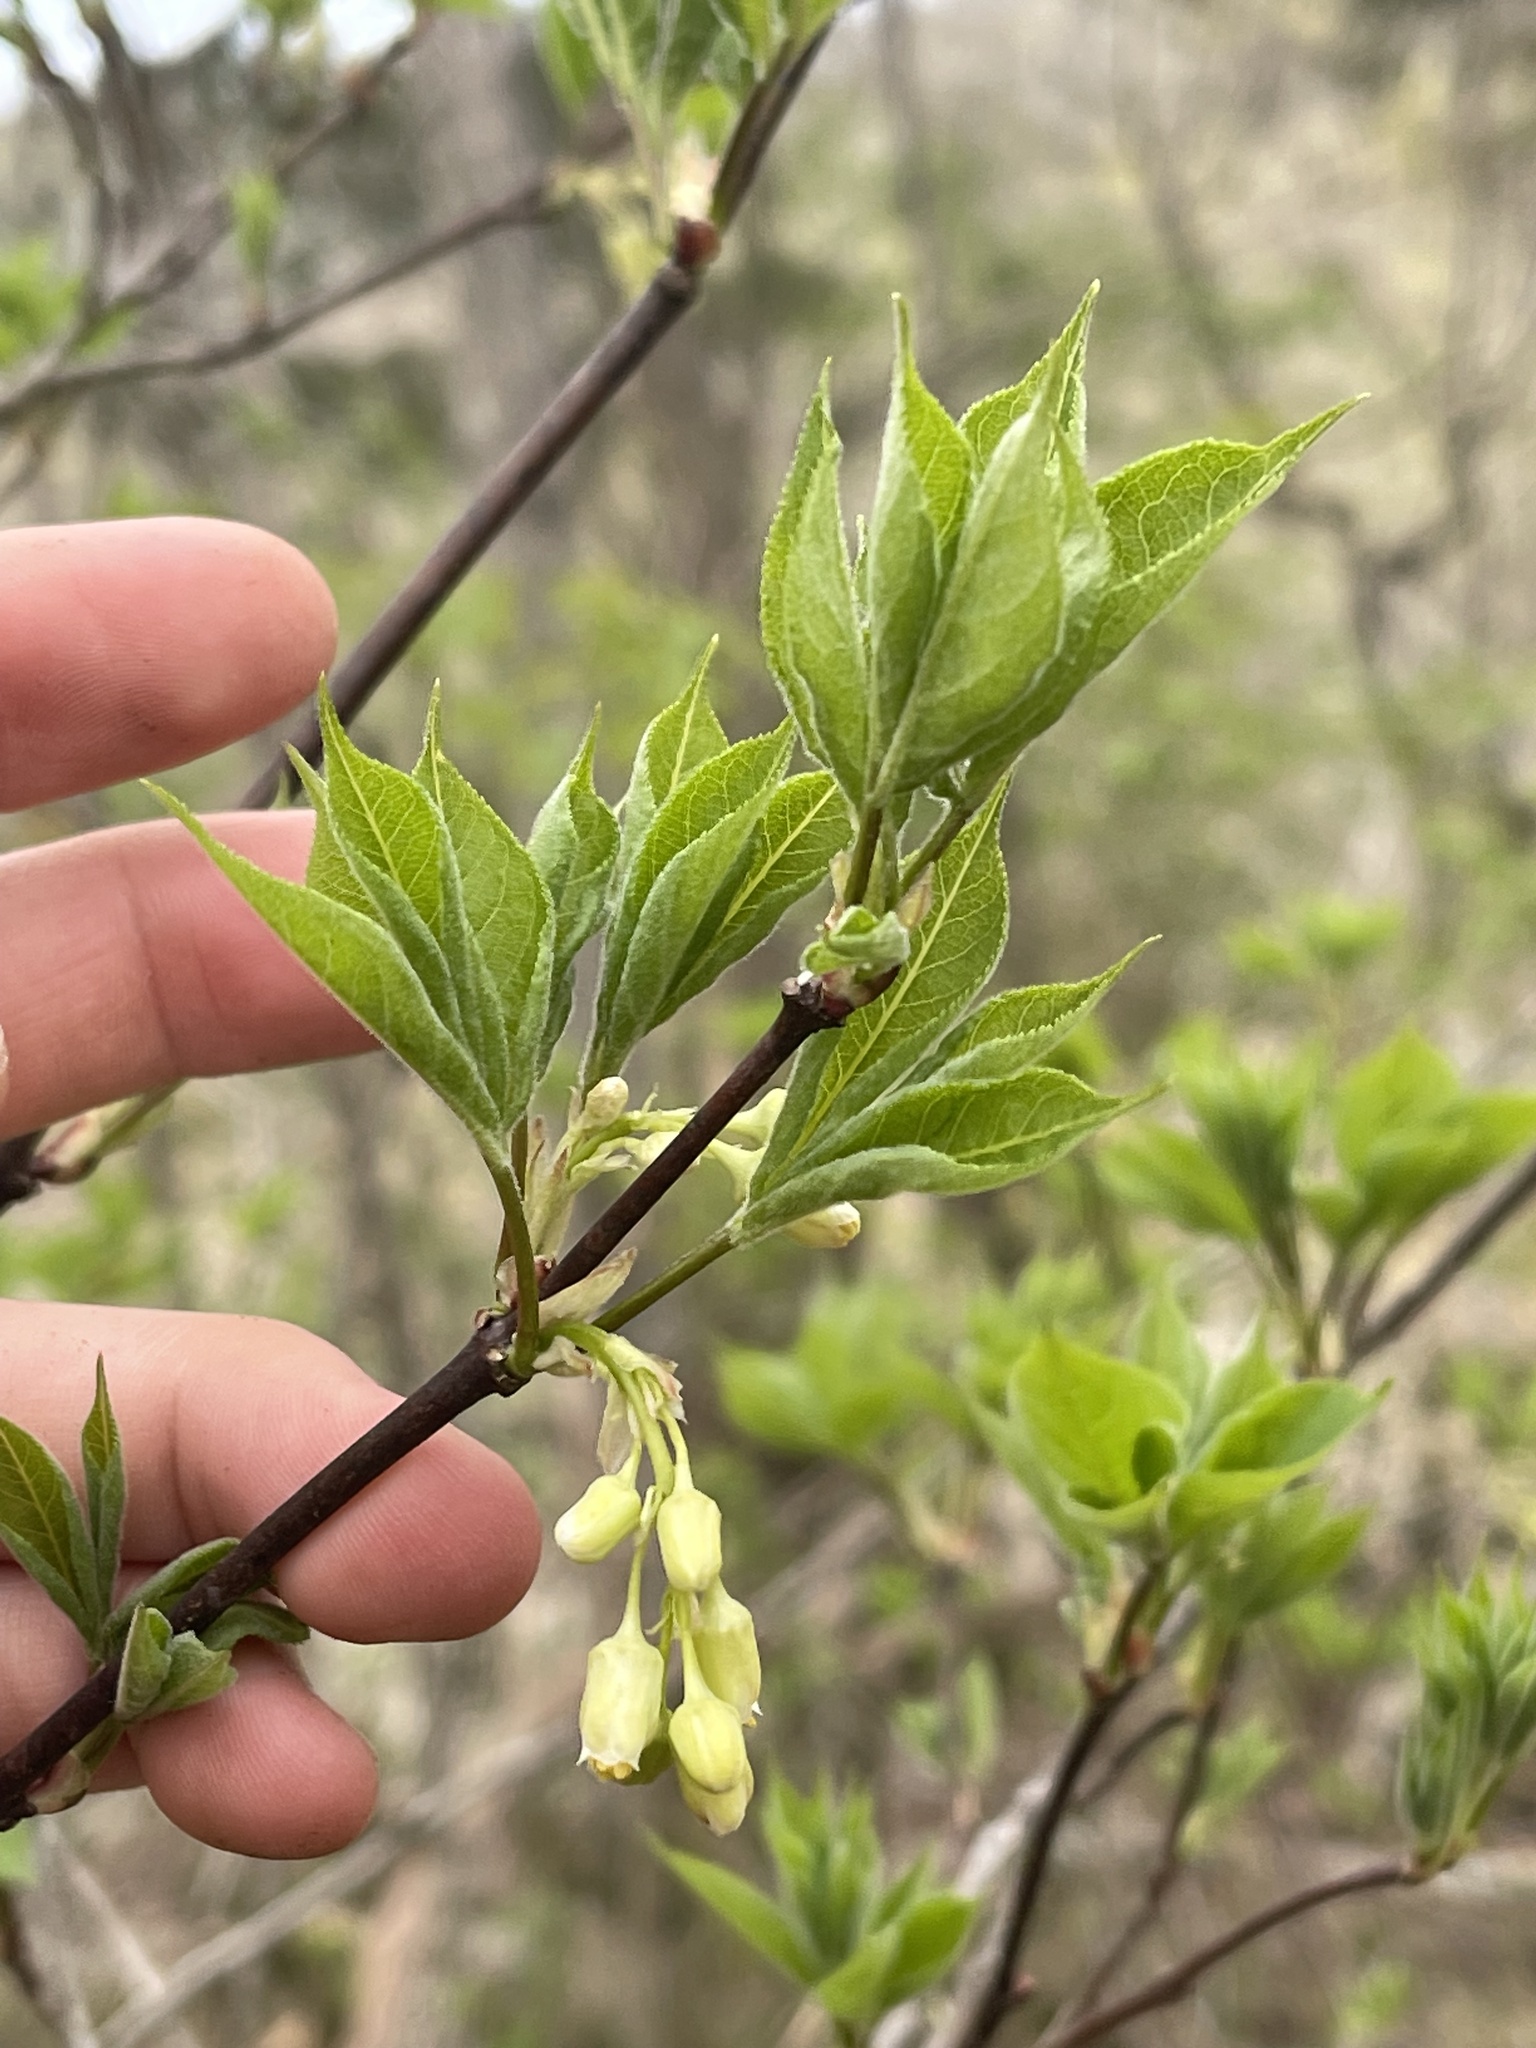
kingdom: Plantae
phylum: Tracheophyta
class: Magnoliopsida
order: Crossosomatales
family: Staphyleaceae
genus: Staphylea
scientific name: Staphylea trifolia
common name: American bladdernut
